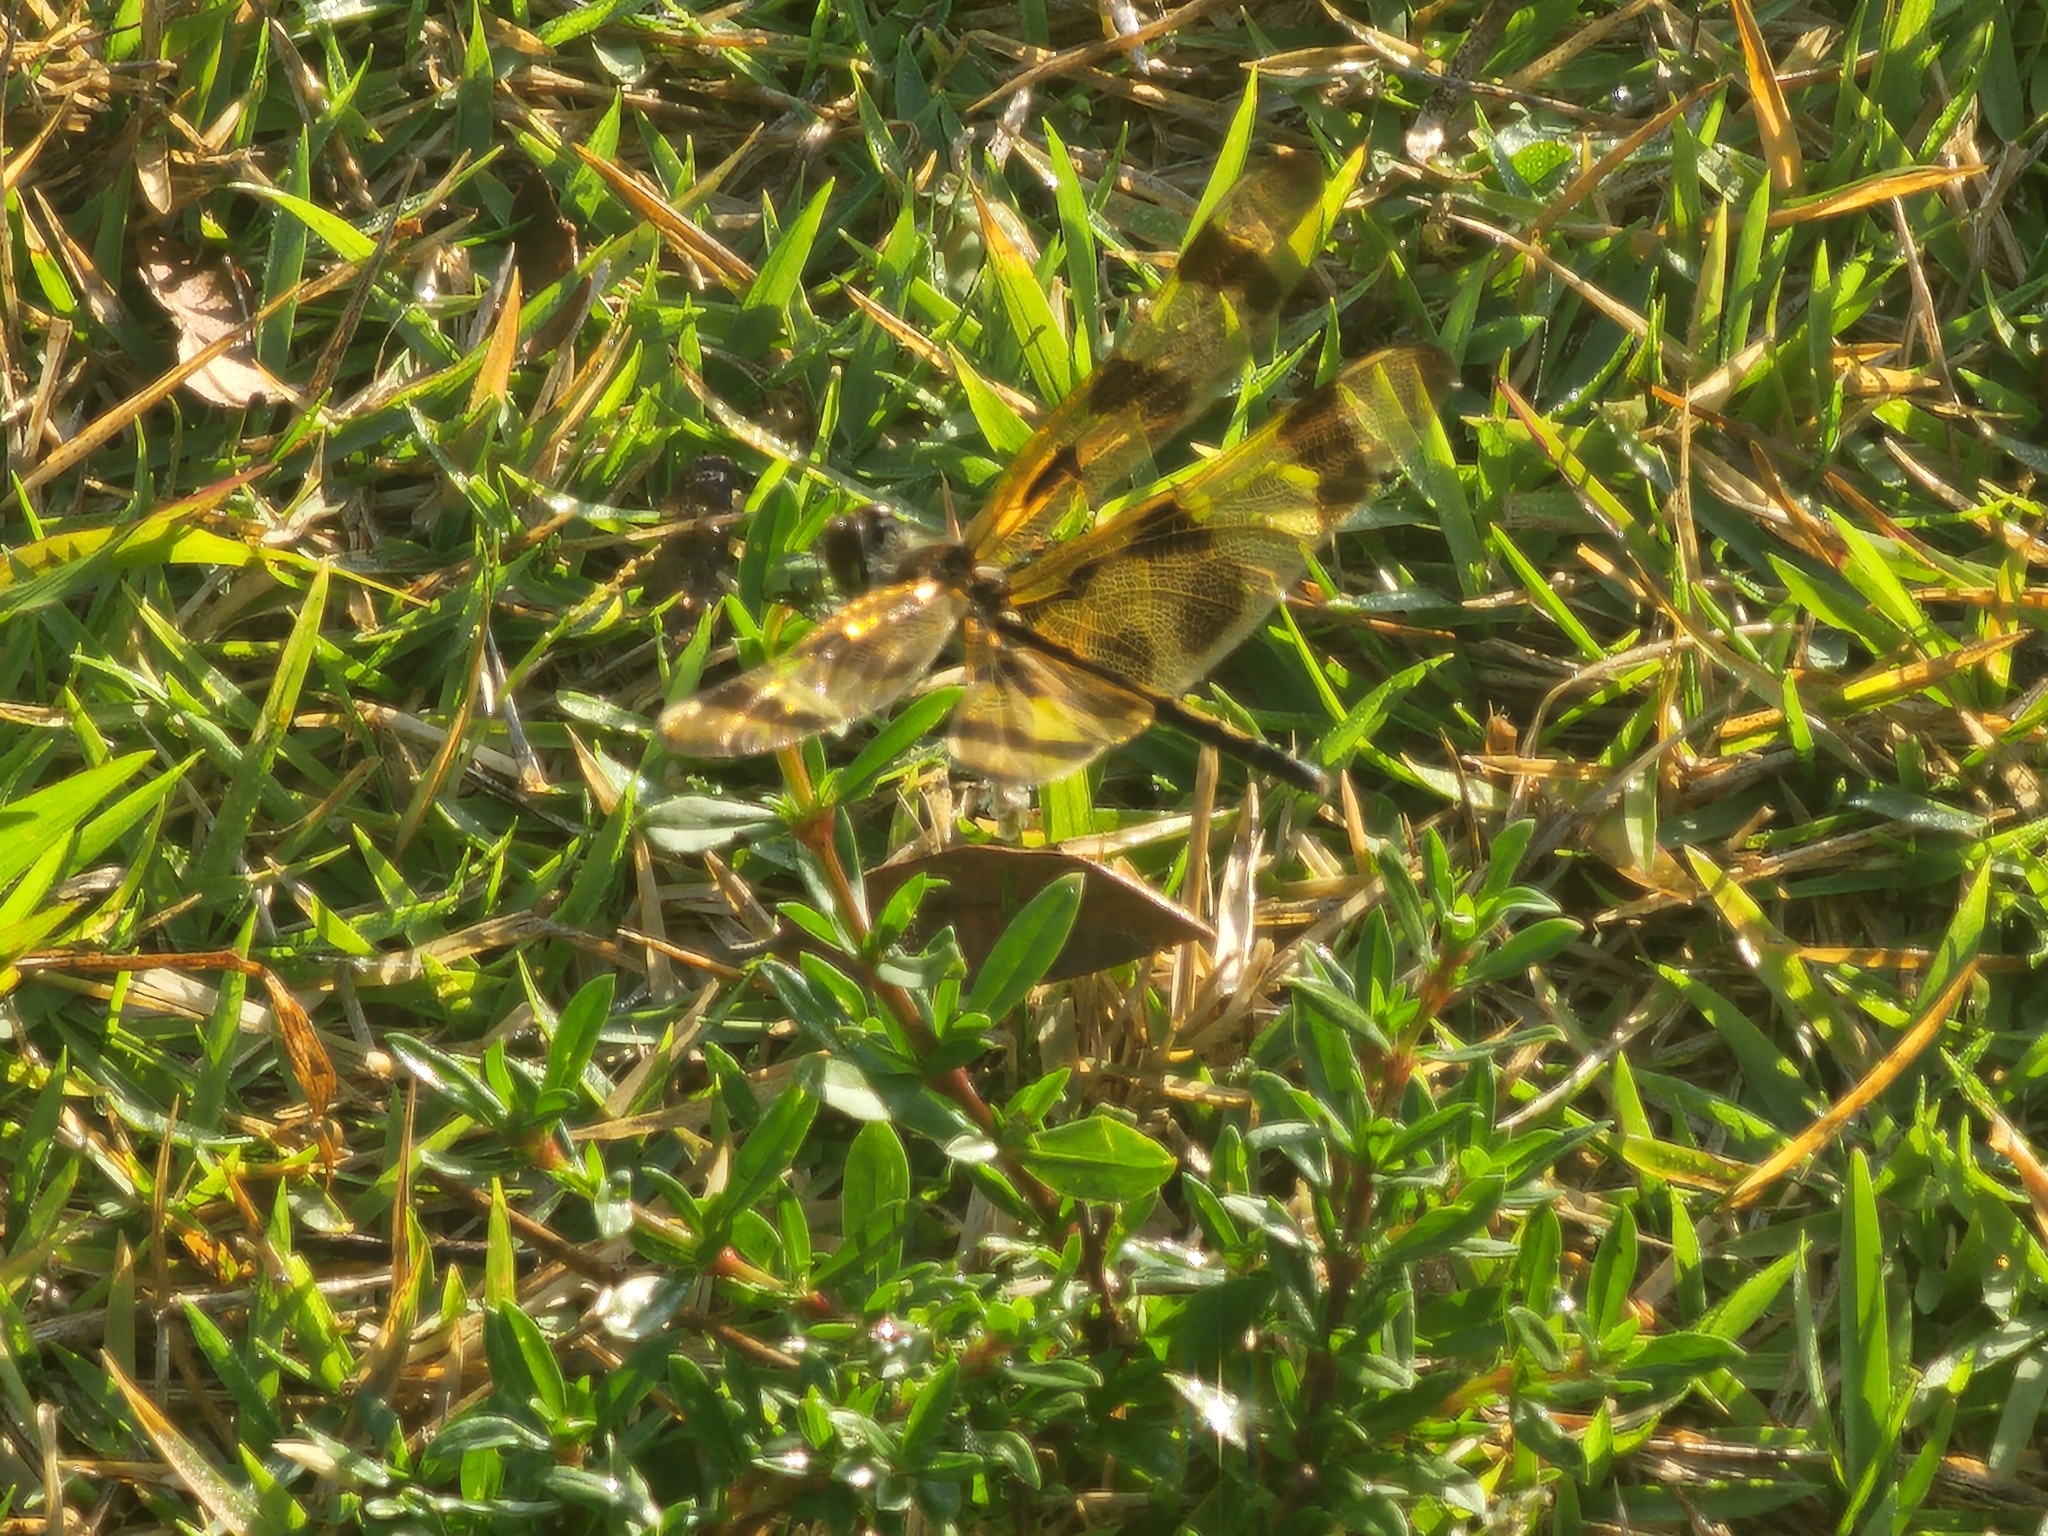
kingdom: Animalia
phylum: Arthropoda
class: Insecta
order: Odonata
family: Libellulidae
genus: Celithemis
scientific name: Celithemis eponina
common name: Halloween pennant
